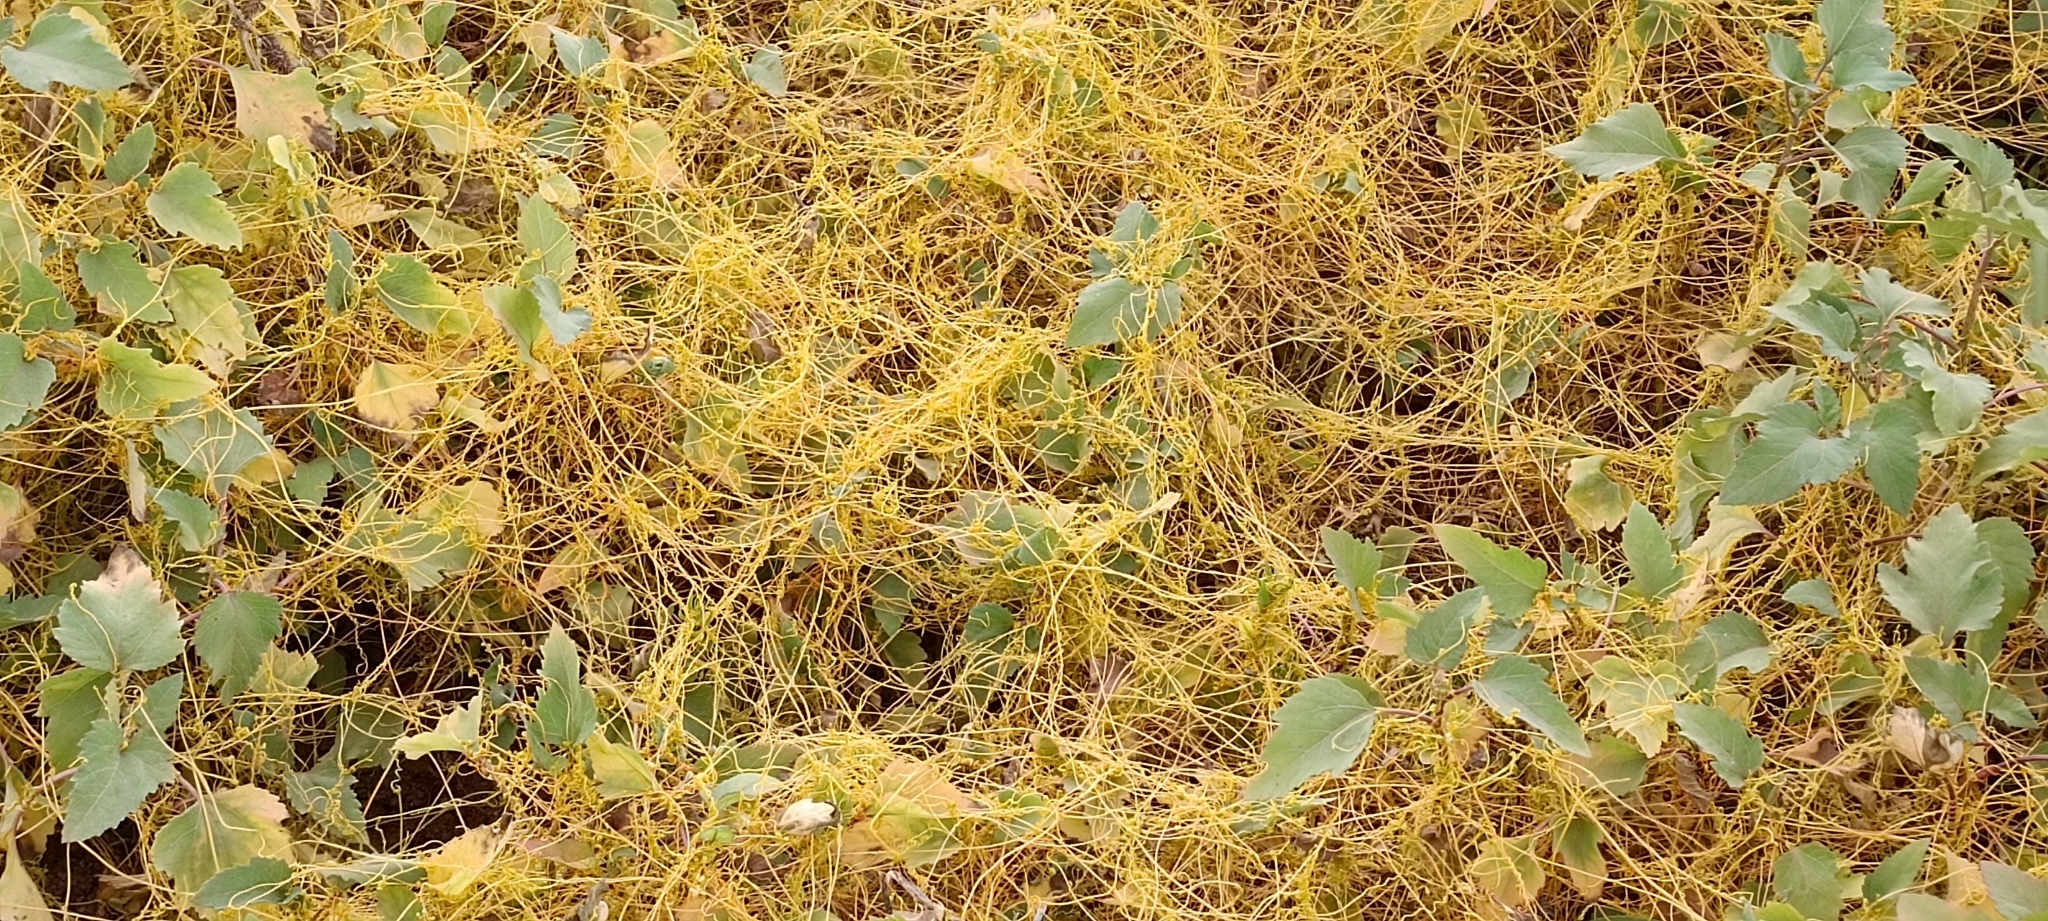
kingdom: Plantae
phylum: Tracheophyta
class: Magnoliopsida
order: Solanales
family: Convolvulaceae
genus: Cuscuta
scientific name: Cuscuta campestris
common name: Yellow dodder
